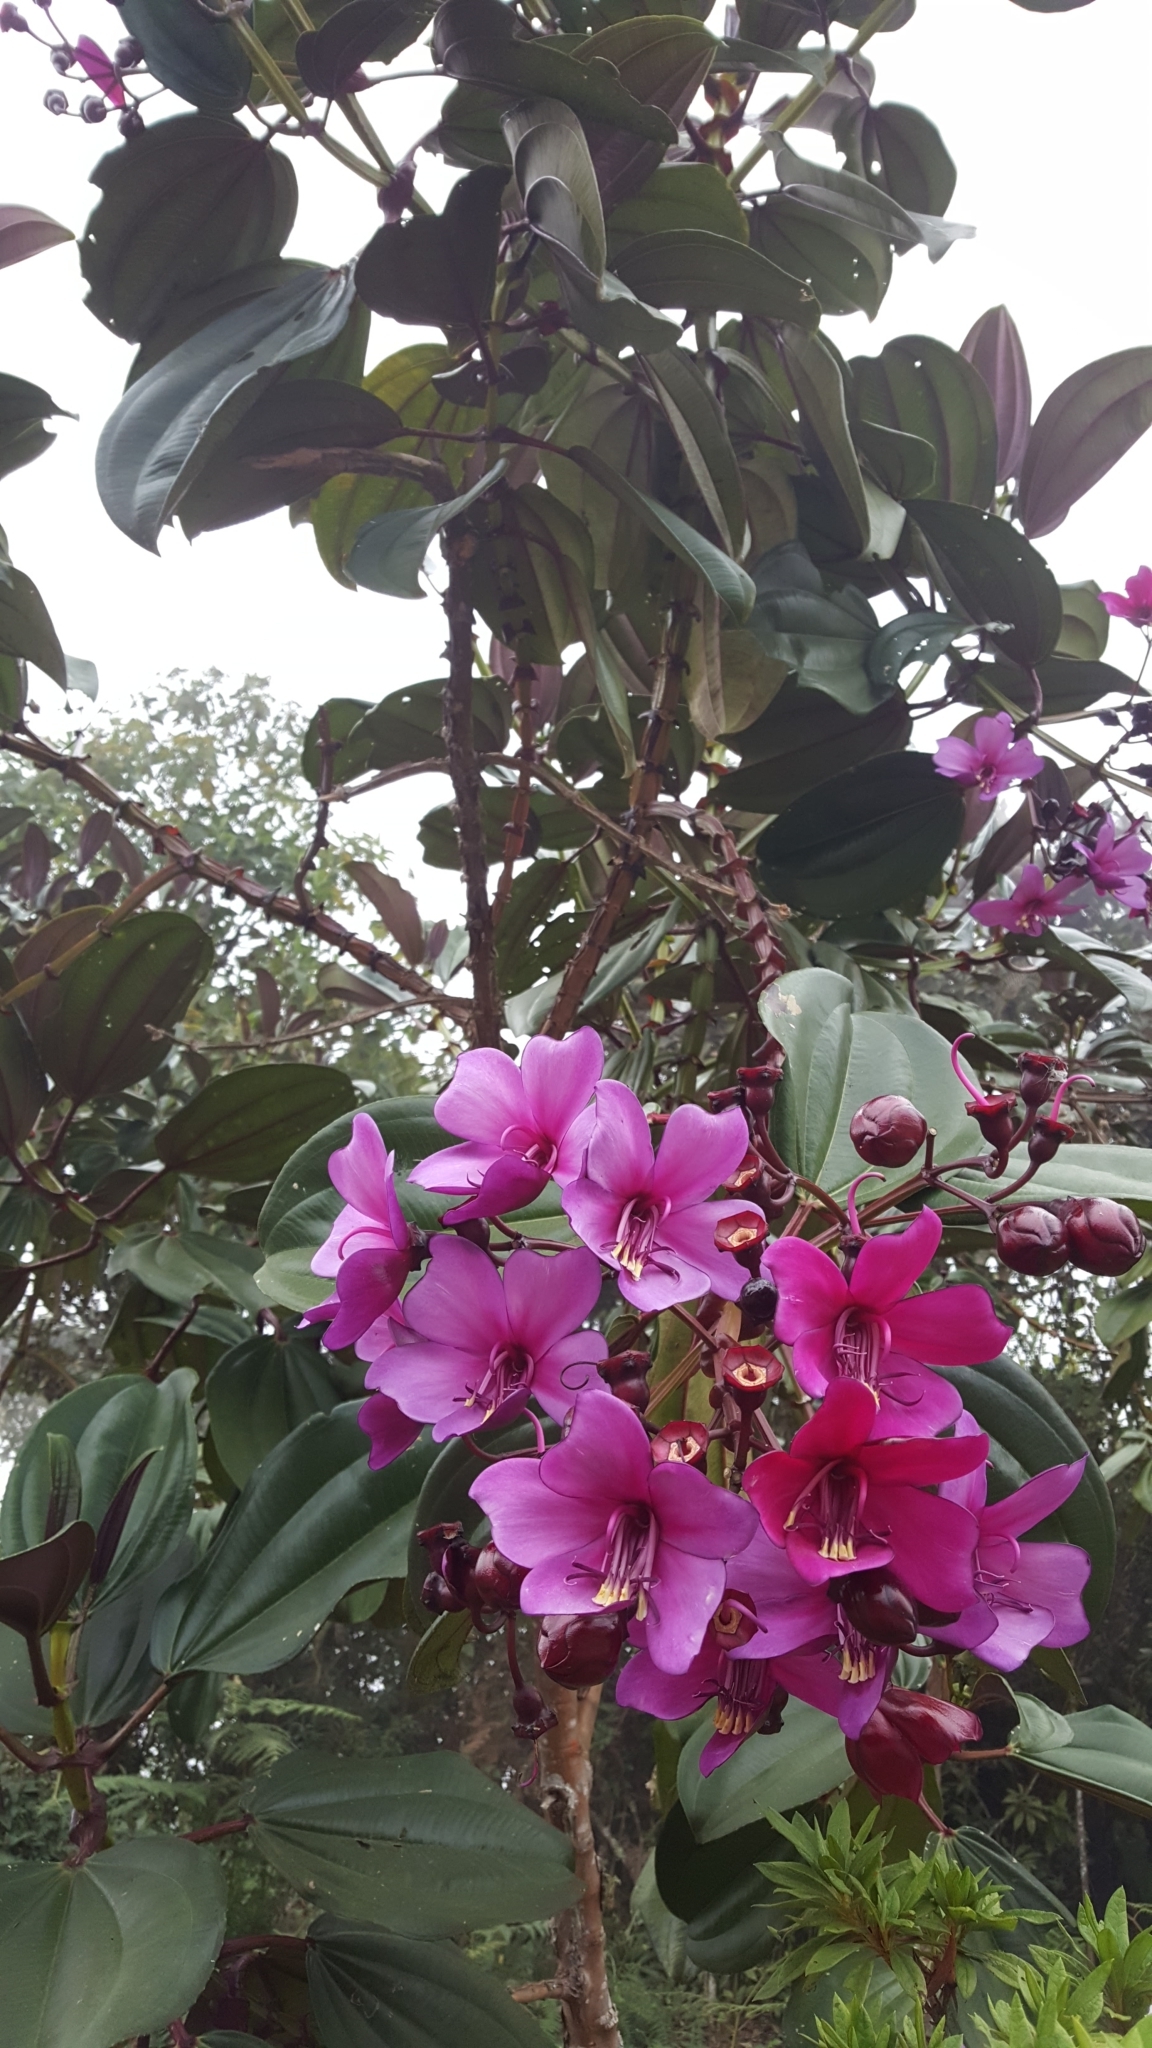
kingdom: Plantae
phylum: Tracheophyta
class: Magnoliopsida
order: Myrtales
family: Melastomataceae
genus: Meriania
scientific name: Meriania nobilis
